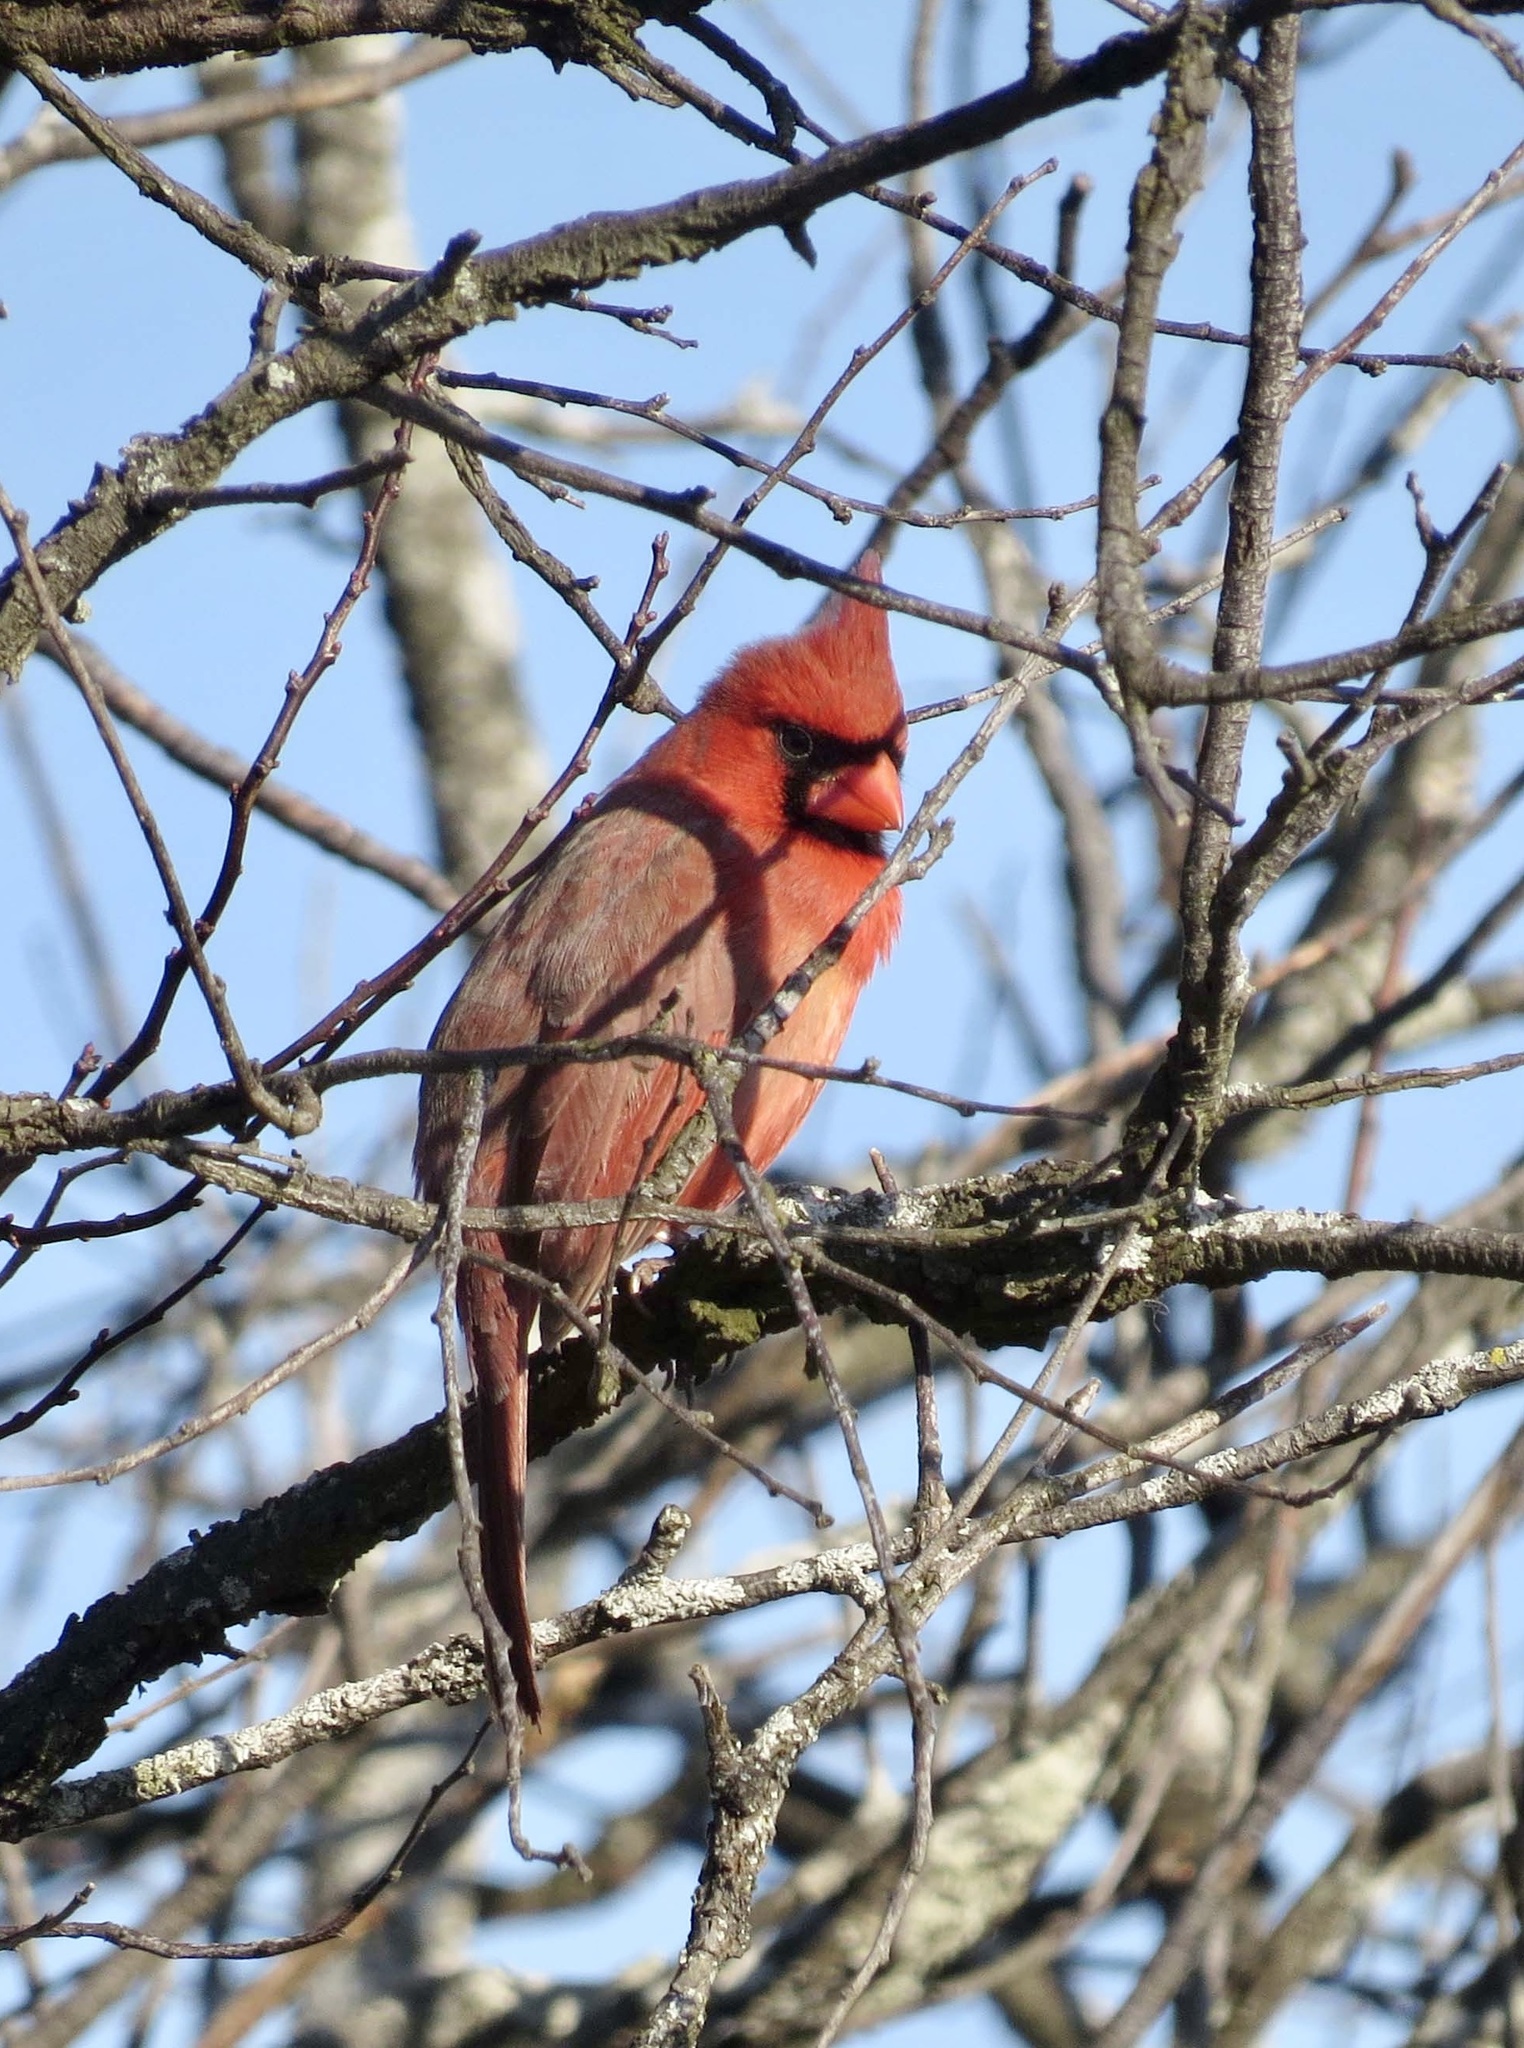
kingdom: Animalia
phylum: Chordata
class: Aves
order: Passeriformes
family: Cardinalidae
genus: Cardinalis
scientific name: Cardinalis cardinalis
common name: Northern cardinal
